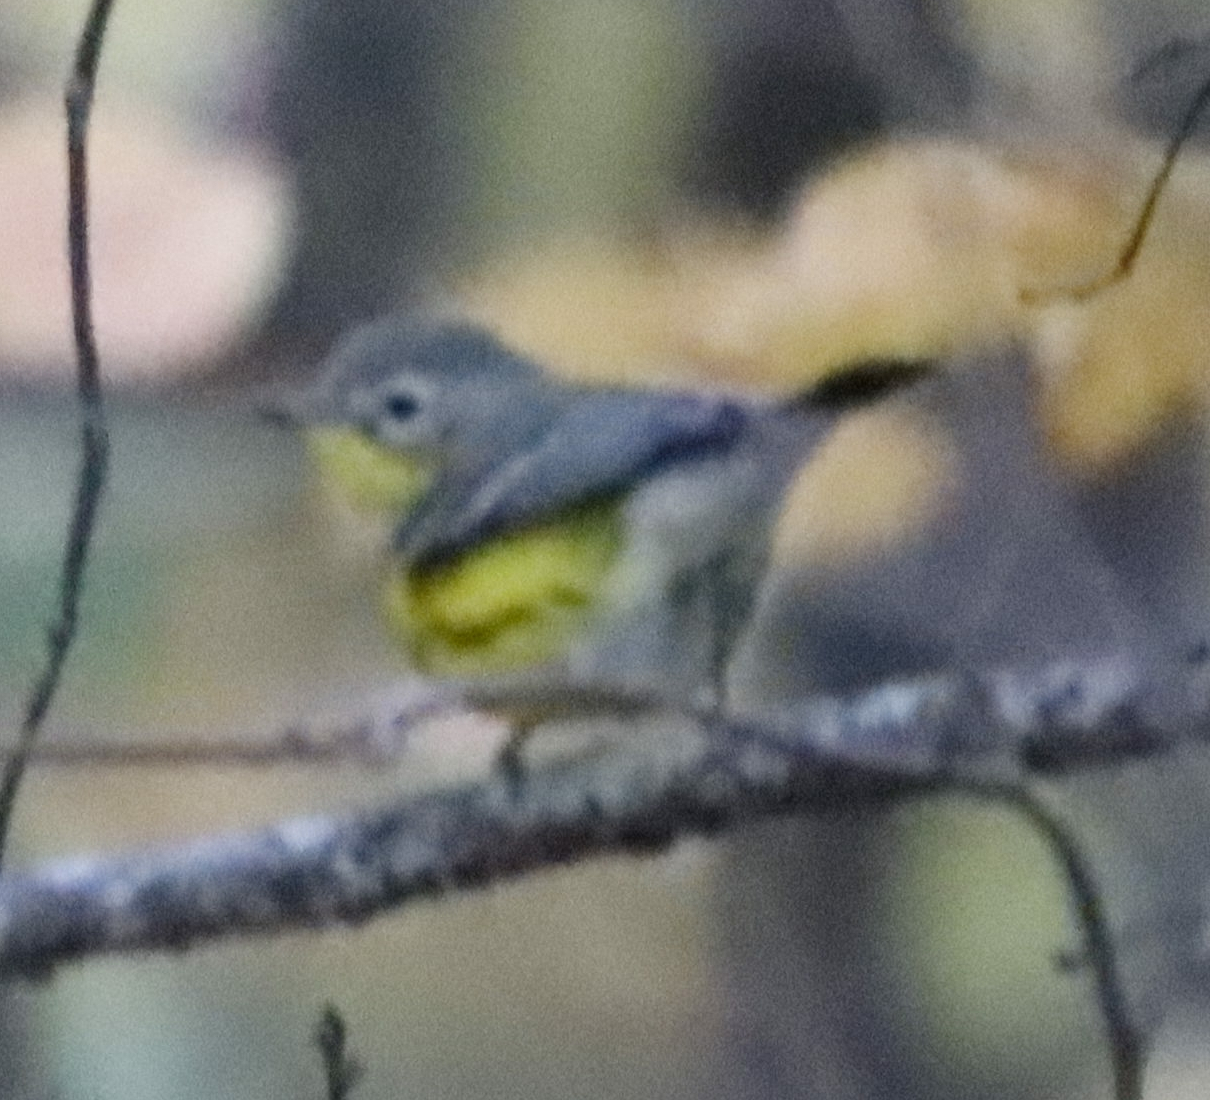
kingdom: Animalia
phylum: Chordata
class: Aves
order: Passeriformes
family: Parulidae
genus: Setophaga
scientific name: Setophaga magnolia
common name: Magnolia warbler
